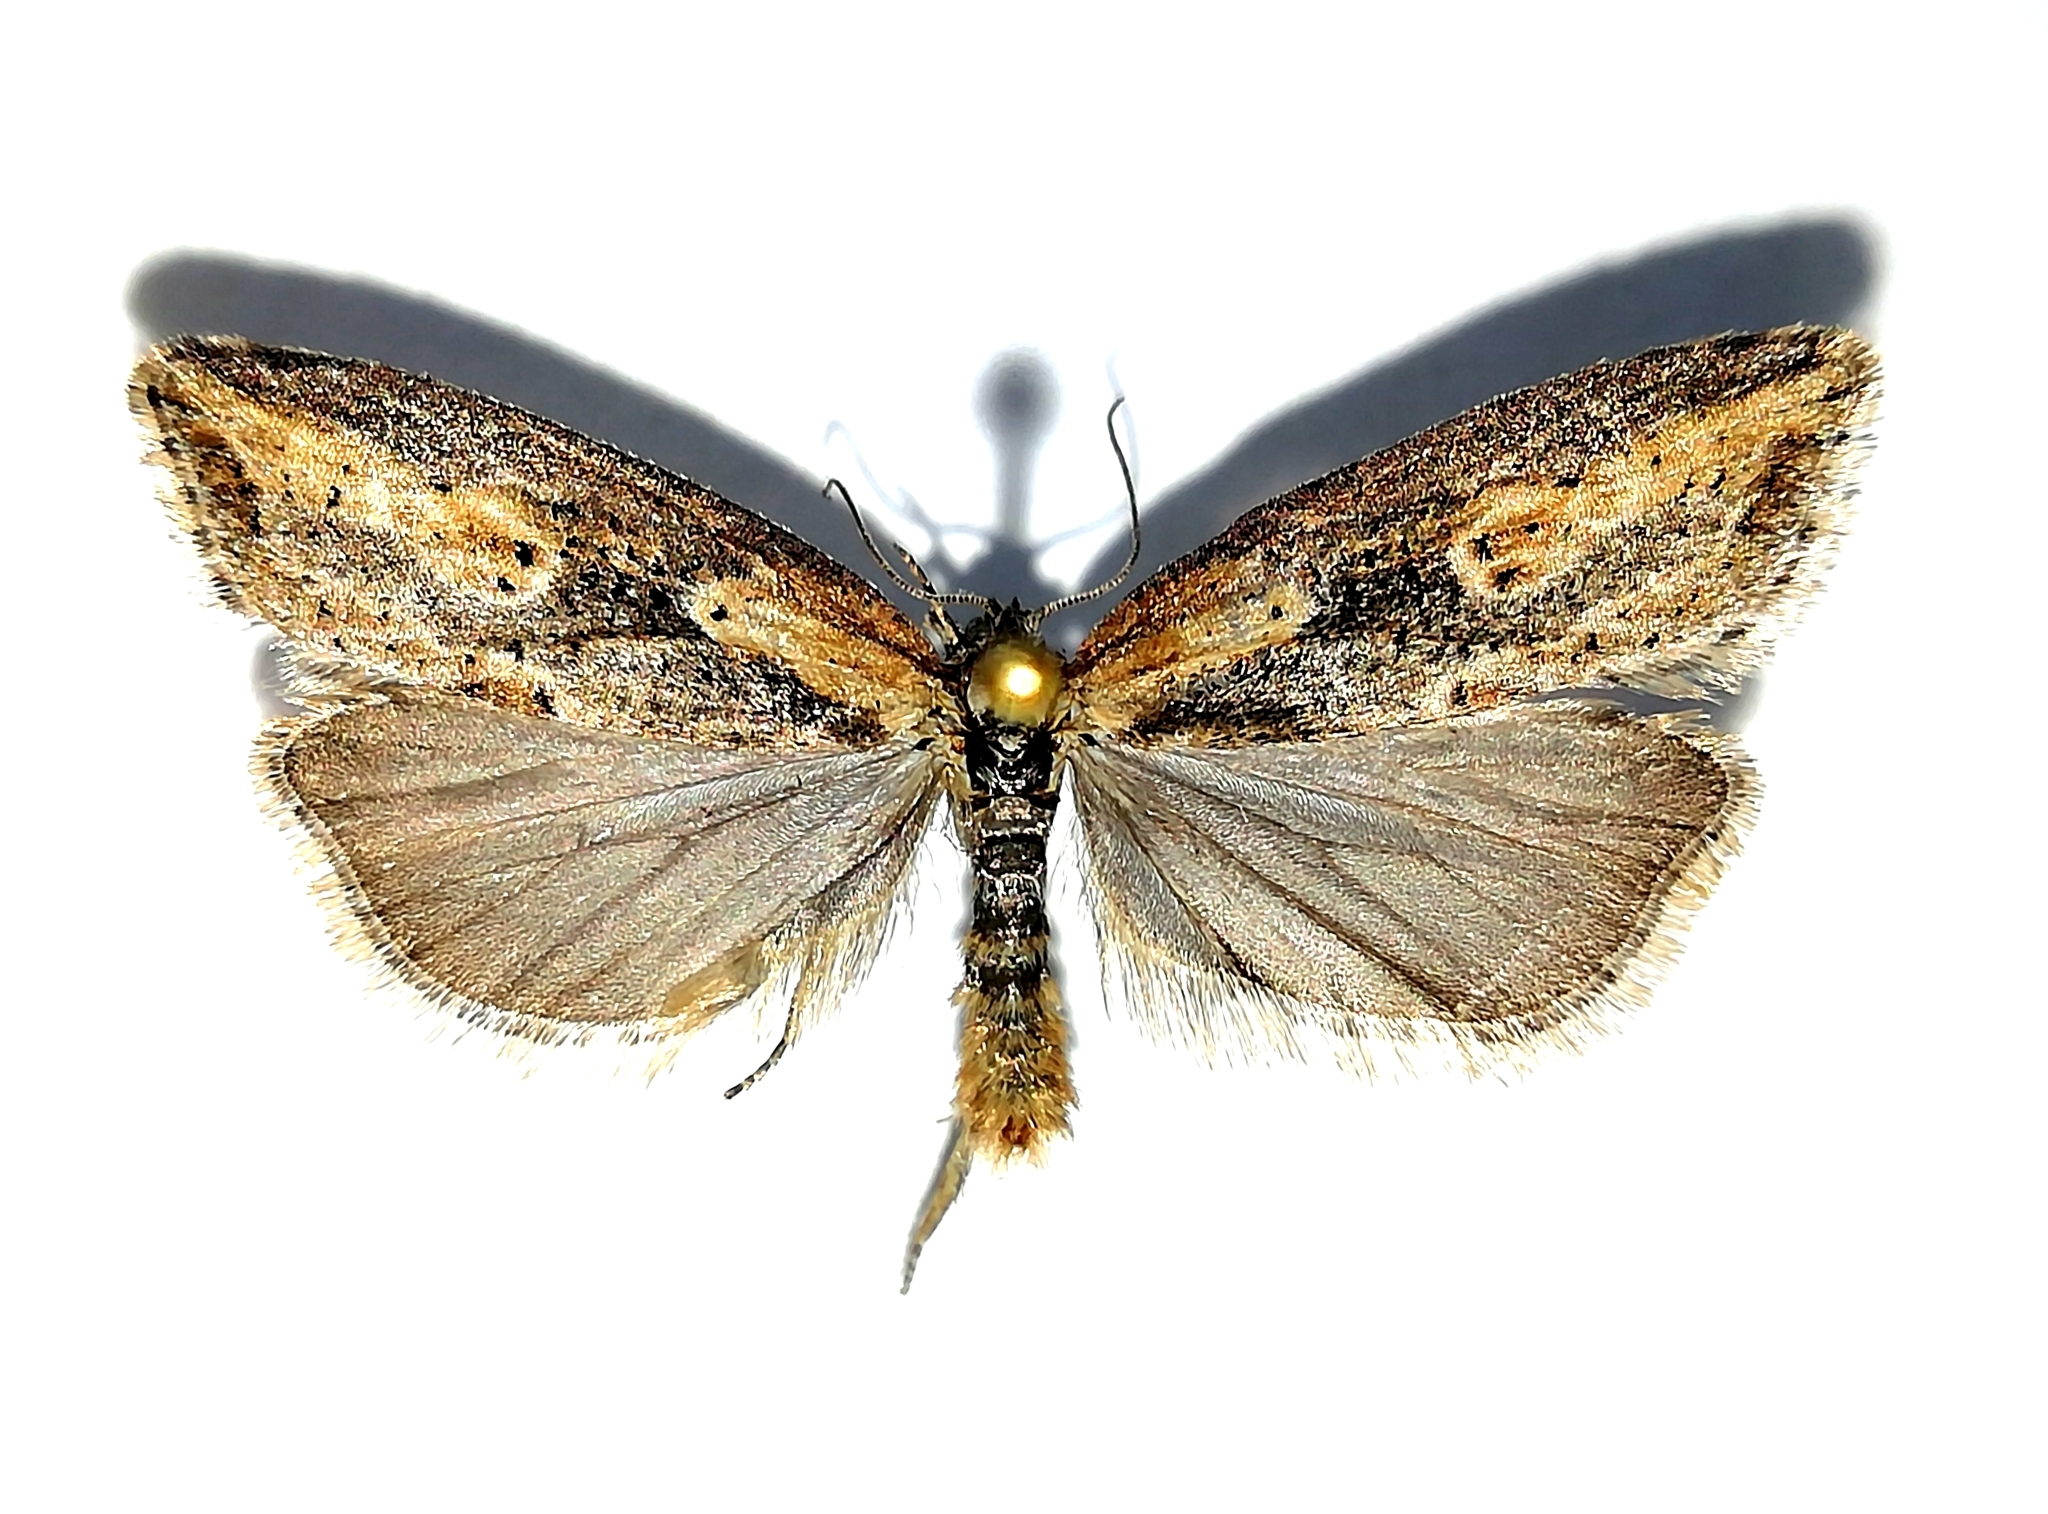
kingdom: Animalia
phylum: Arthropoda
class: Insecta
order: Lepidoptera
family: Tortricidae
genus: Doloploca
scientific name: Doloploca punctulana
